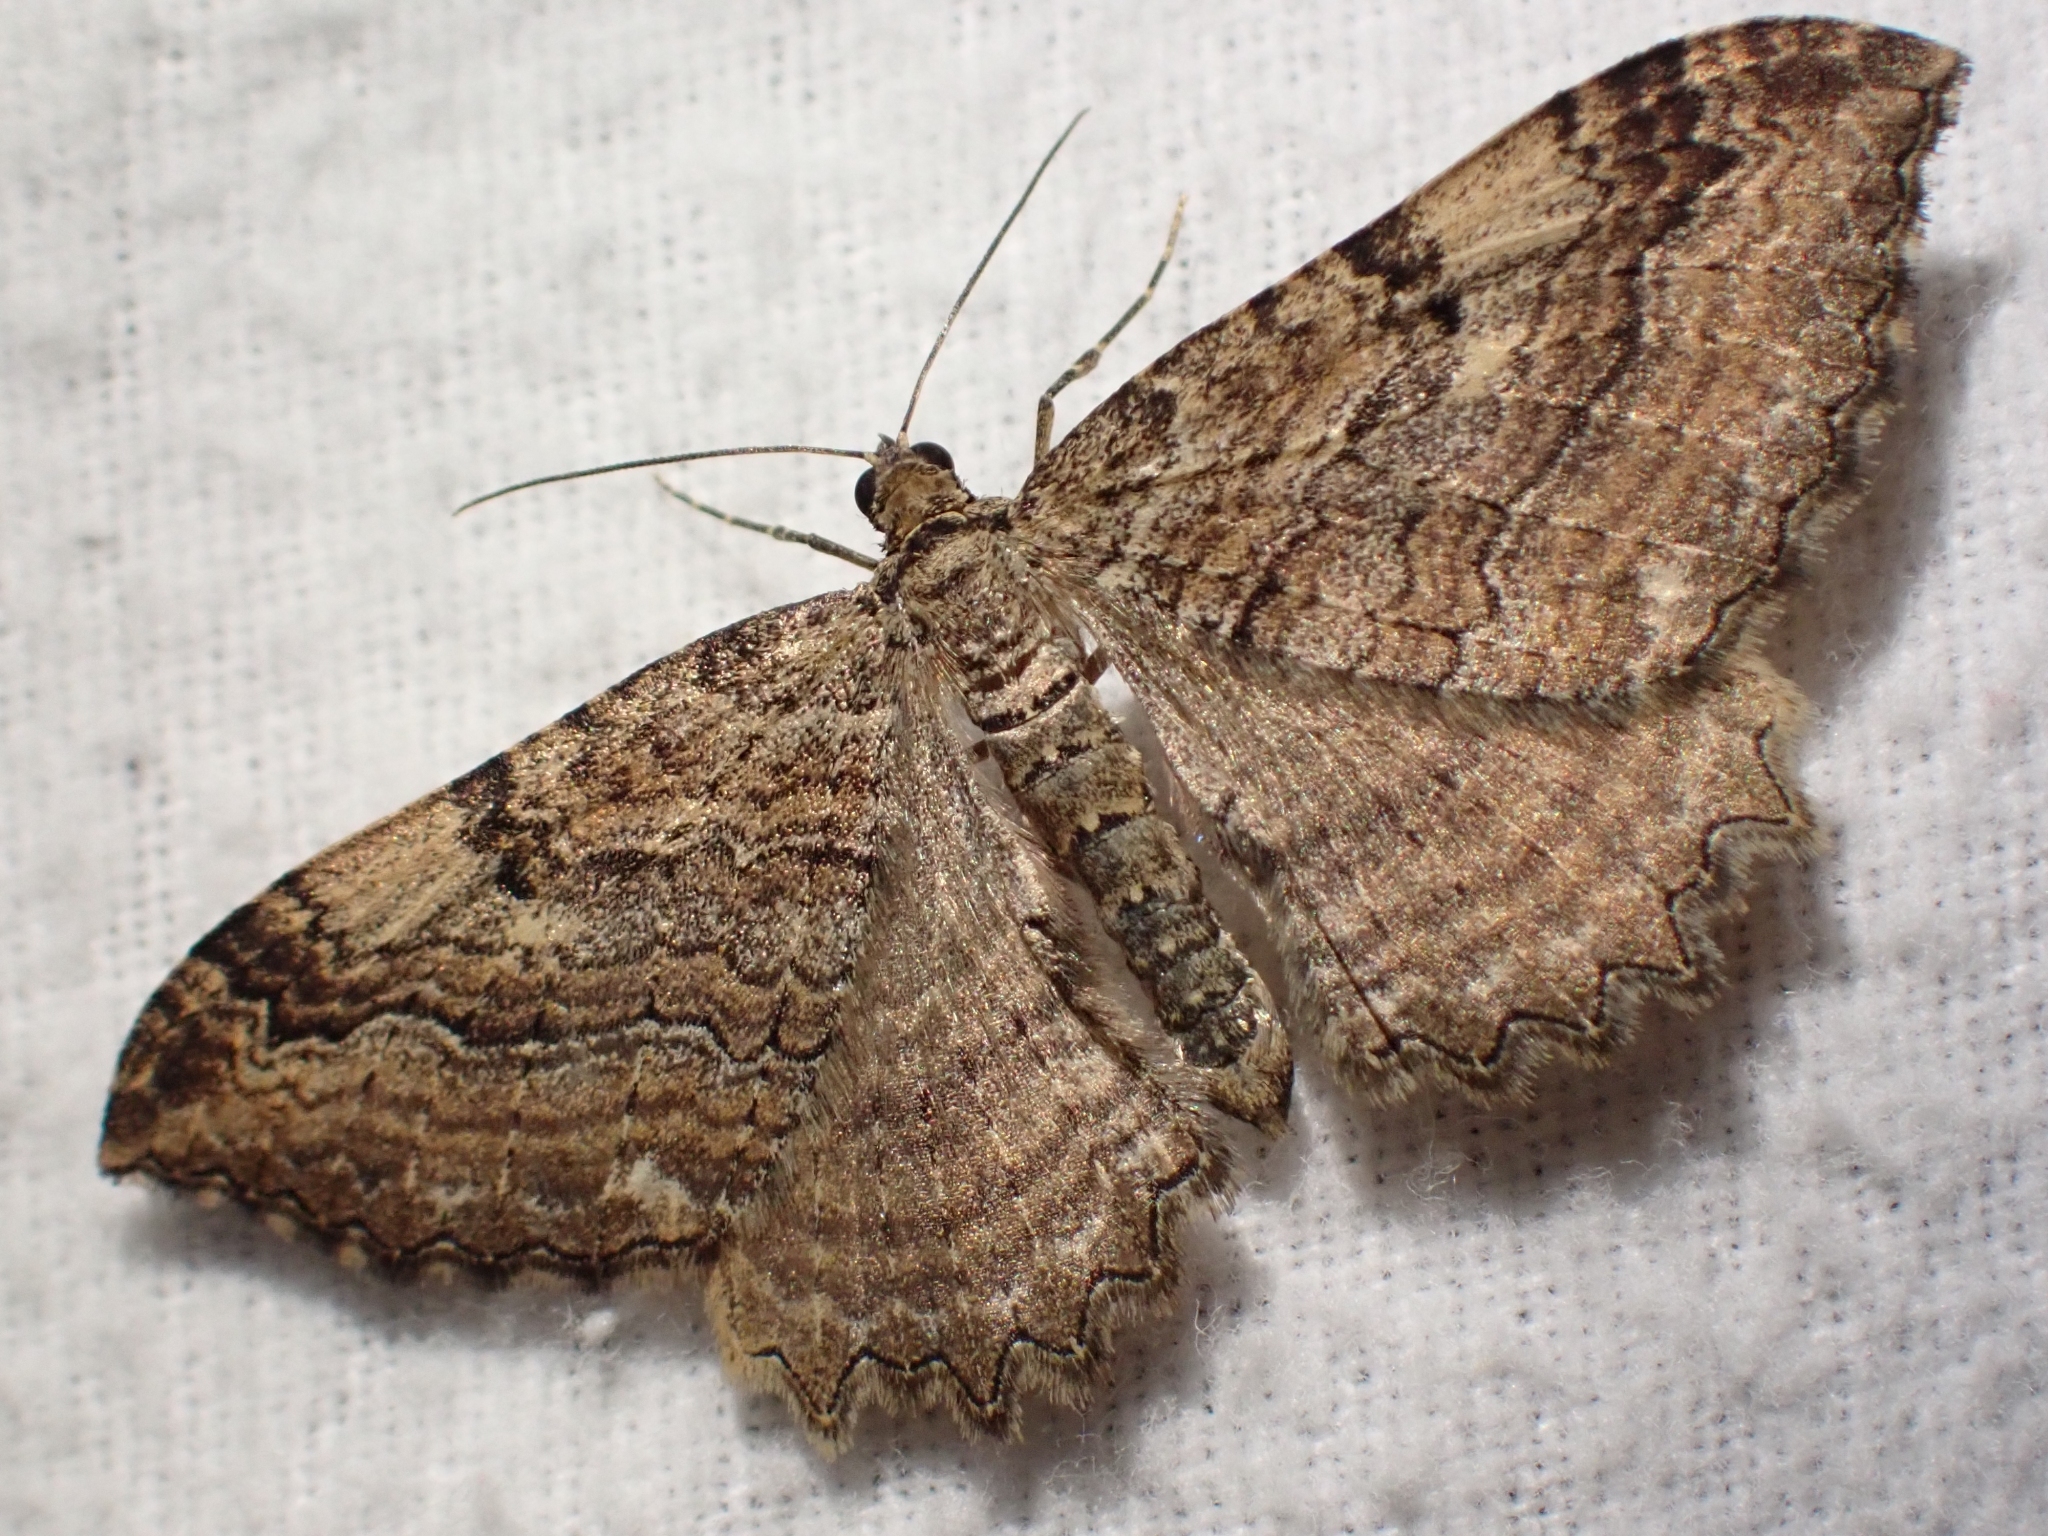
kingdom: Animalia
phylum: Arthropoda
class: Insecta
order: Lepidoptera
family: Geometridae
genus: Rheumaptera
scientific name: Rheumaptera
